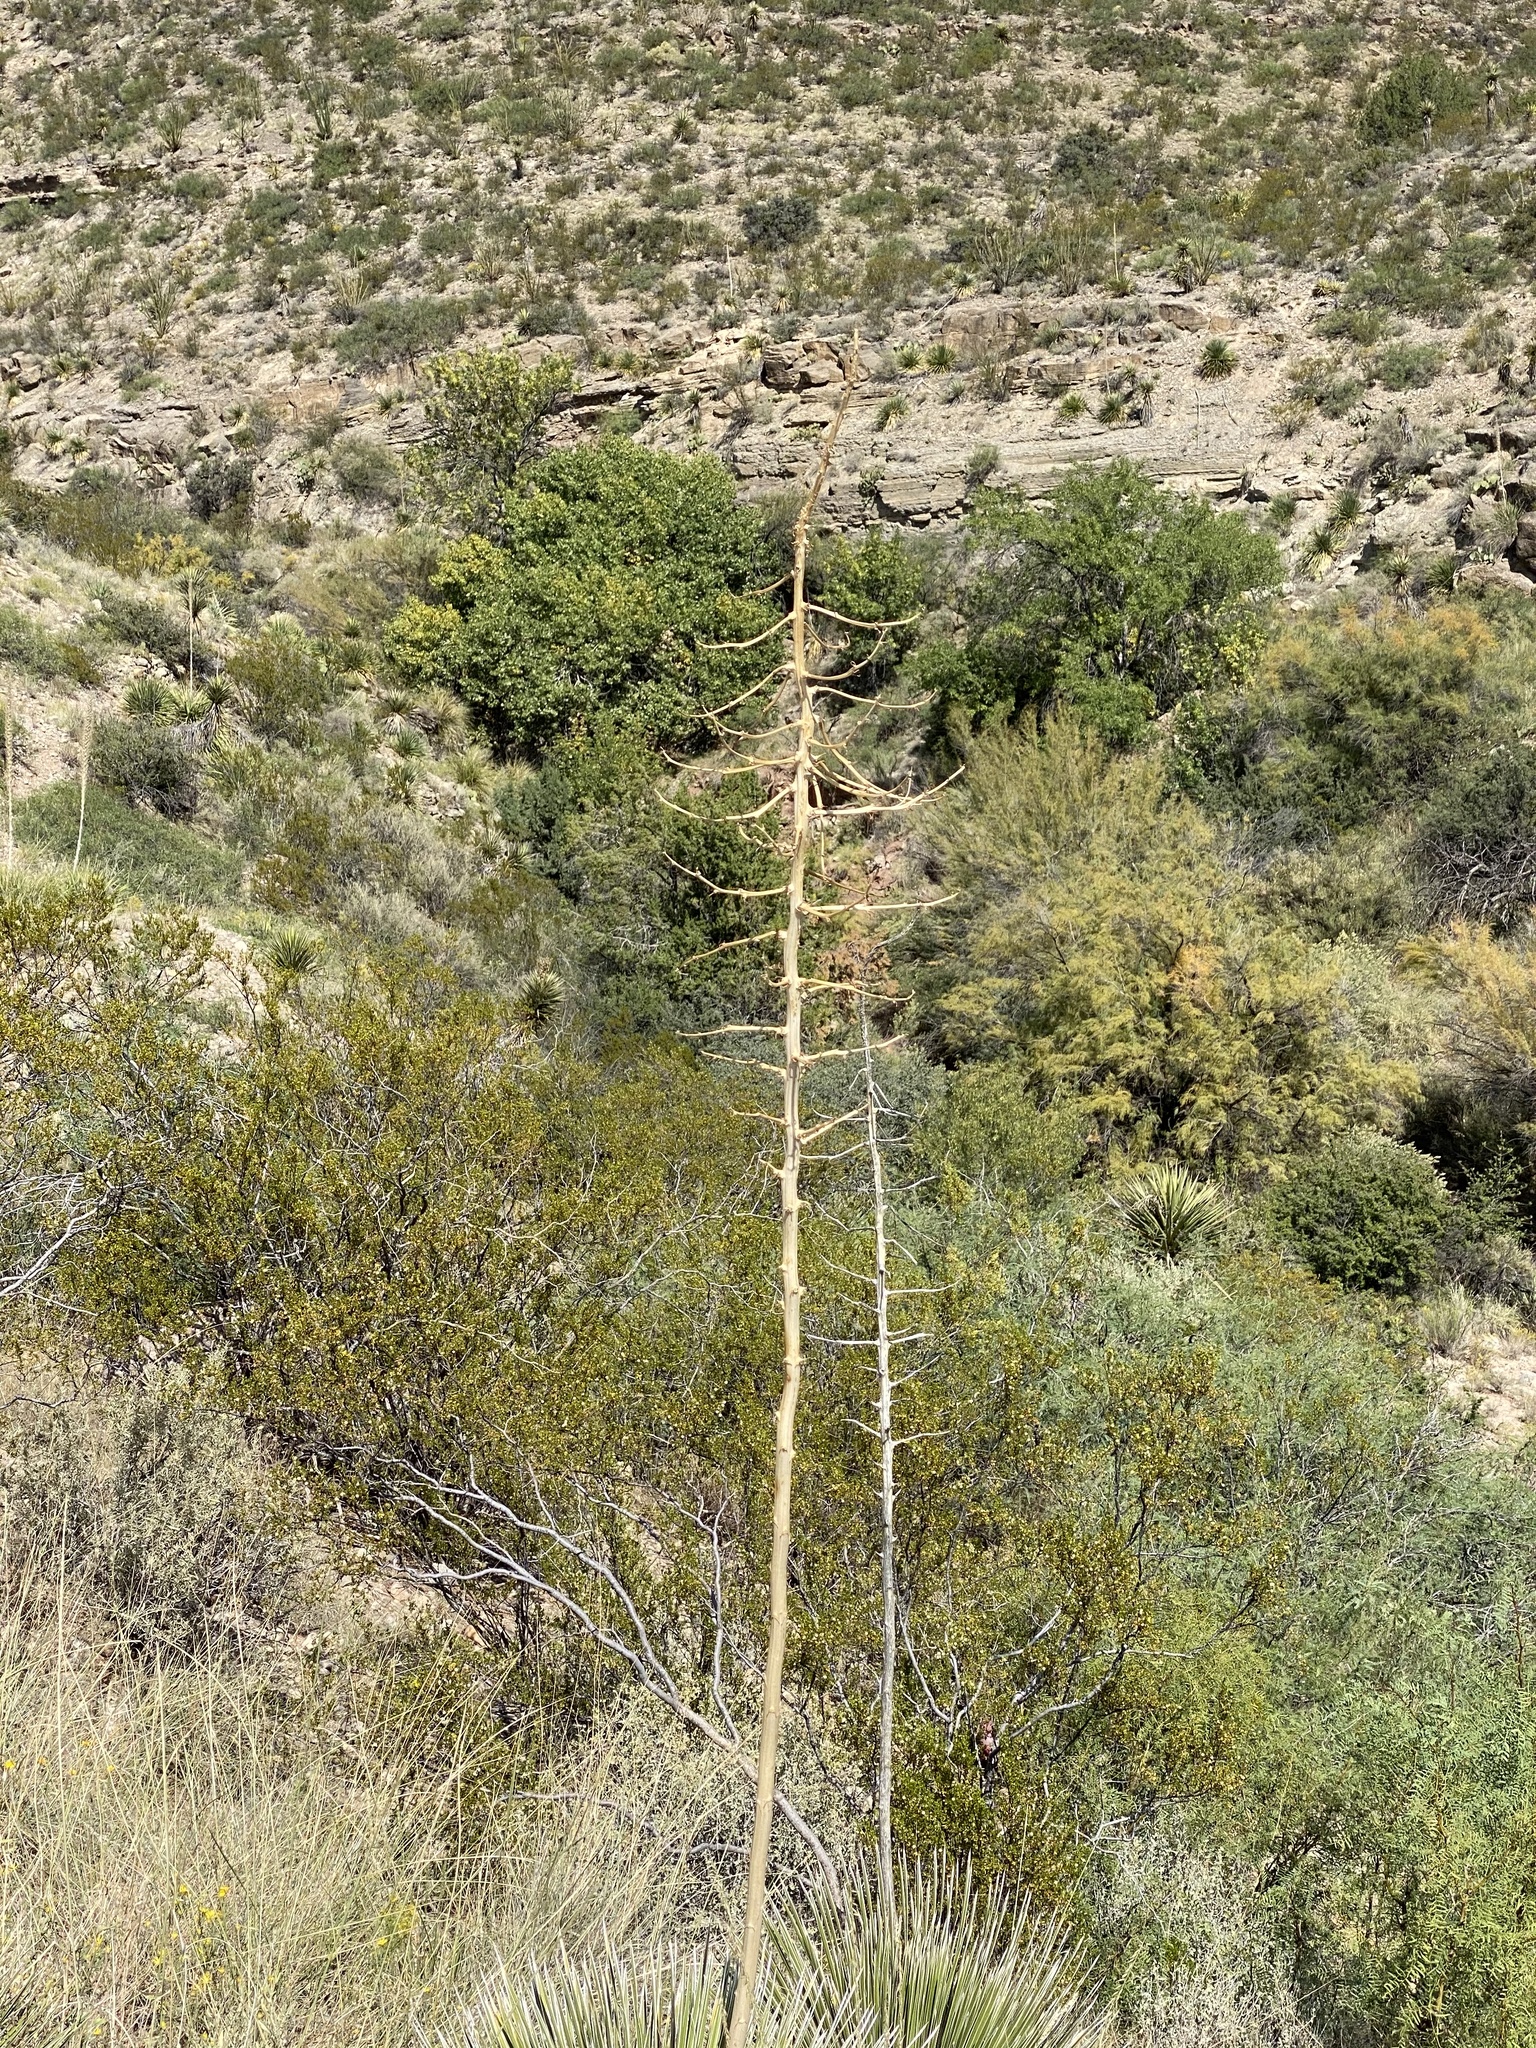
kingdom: Plantae
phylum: Tracheophyta
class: Liliopsida
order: Asparagales
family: Asparagaceae
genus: Yucca
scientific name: Yucca elata
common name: Palmella
